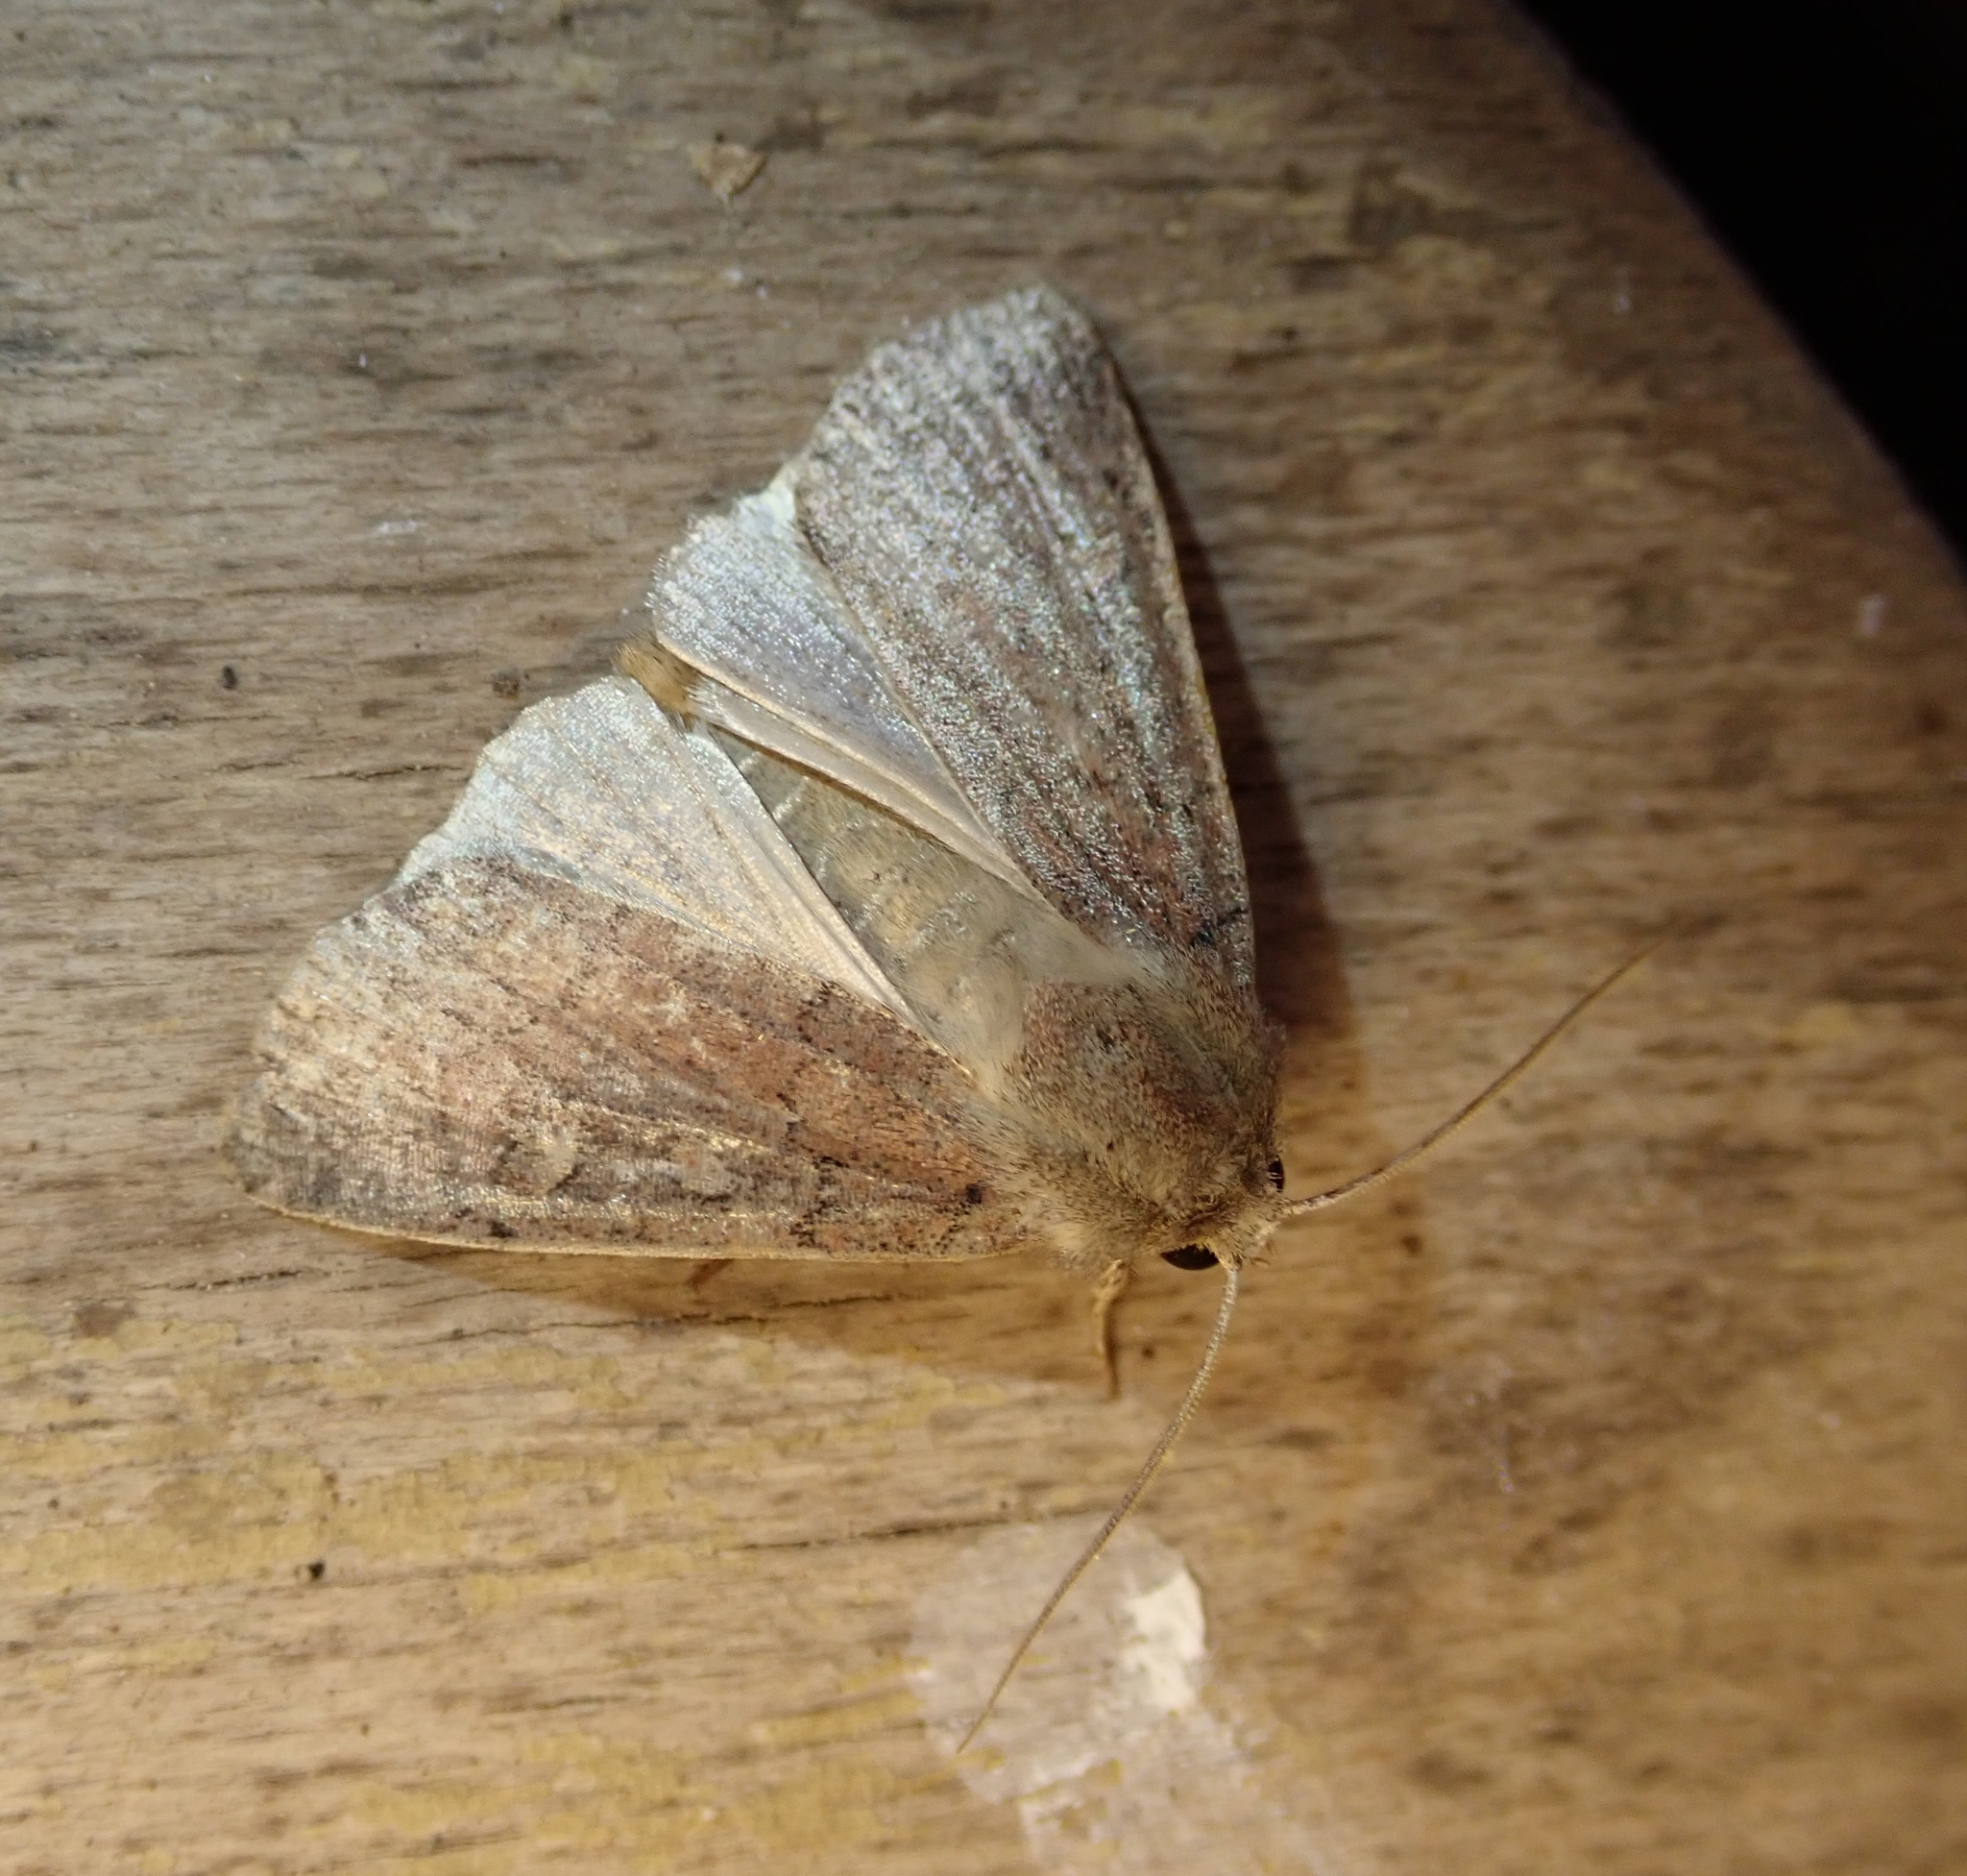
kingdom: Animalia
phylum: Arthropoda
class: Insecta
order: Lepidoptera
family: Noctuidae
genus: Xestia
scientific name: Xestia xanthographa
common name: Square-spot rustic
